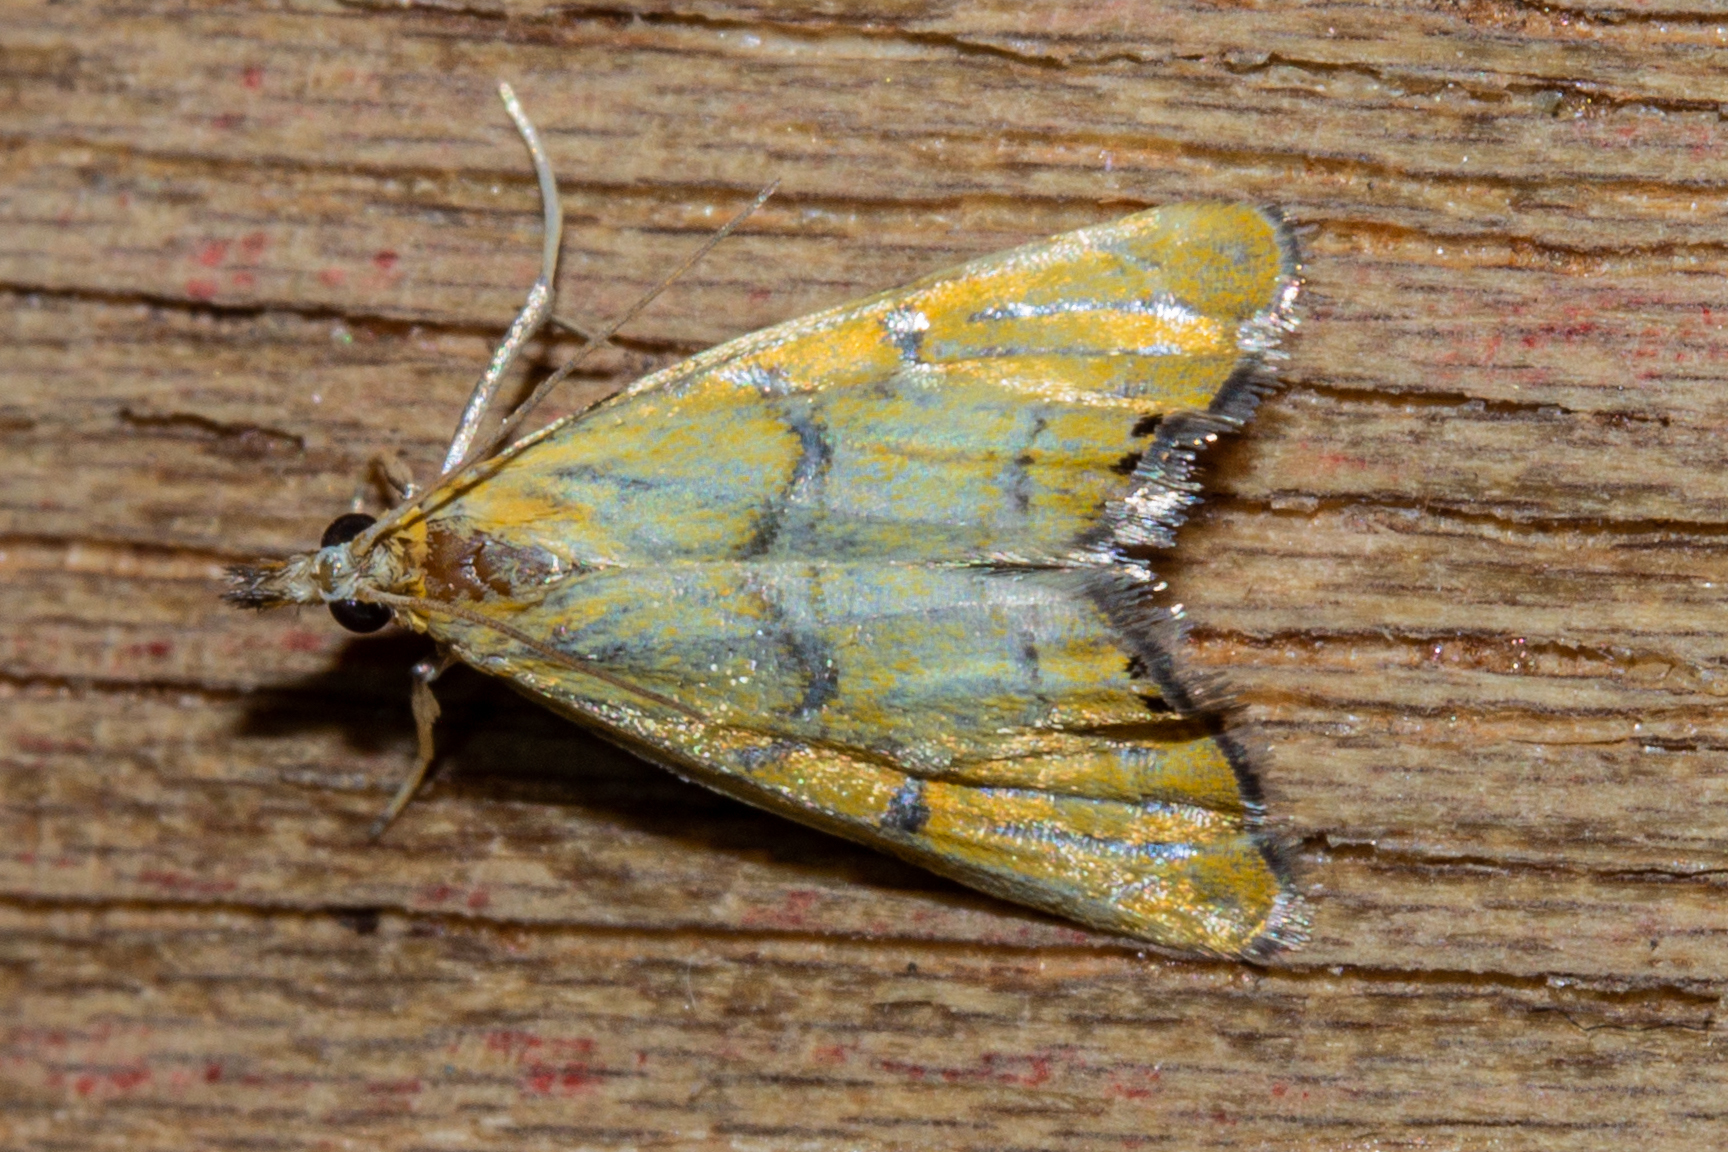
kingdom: Animalia
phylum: Arthropoda
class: Insecta
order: Lepidoptera
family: Crambidae
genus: Glaucocharis
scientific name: Glaucocharis auriscriptella
